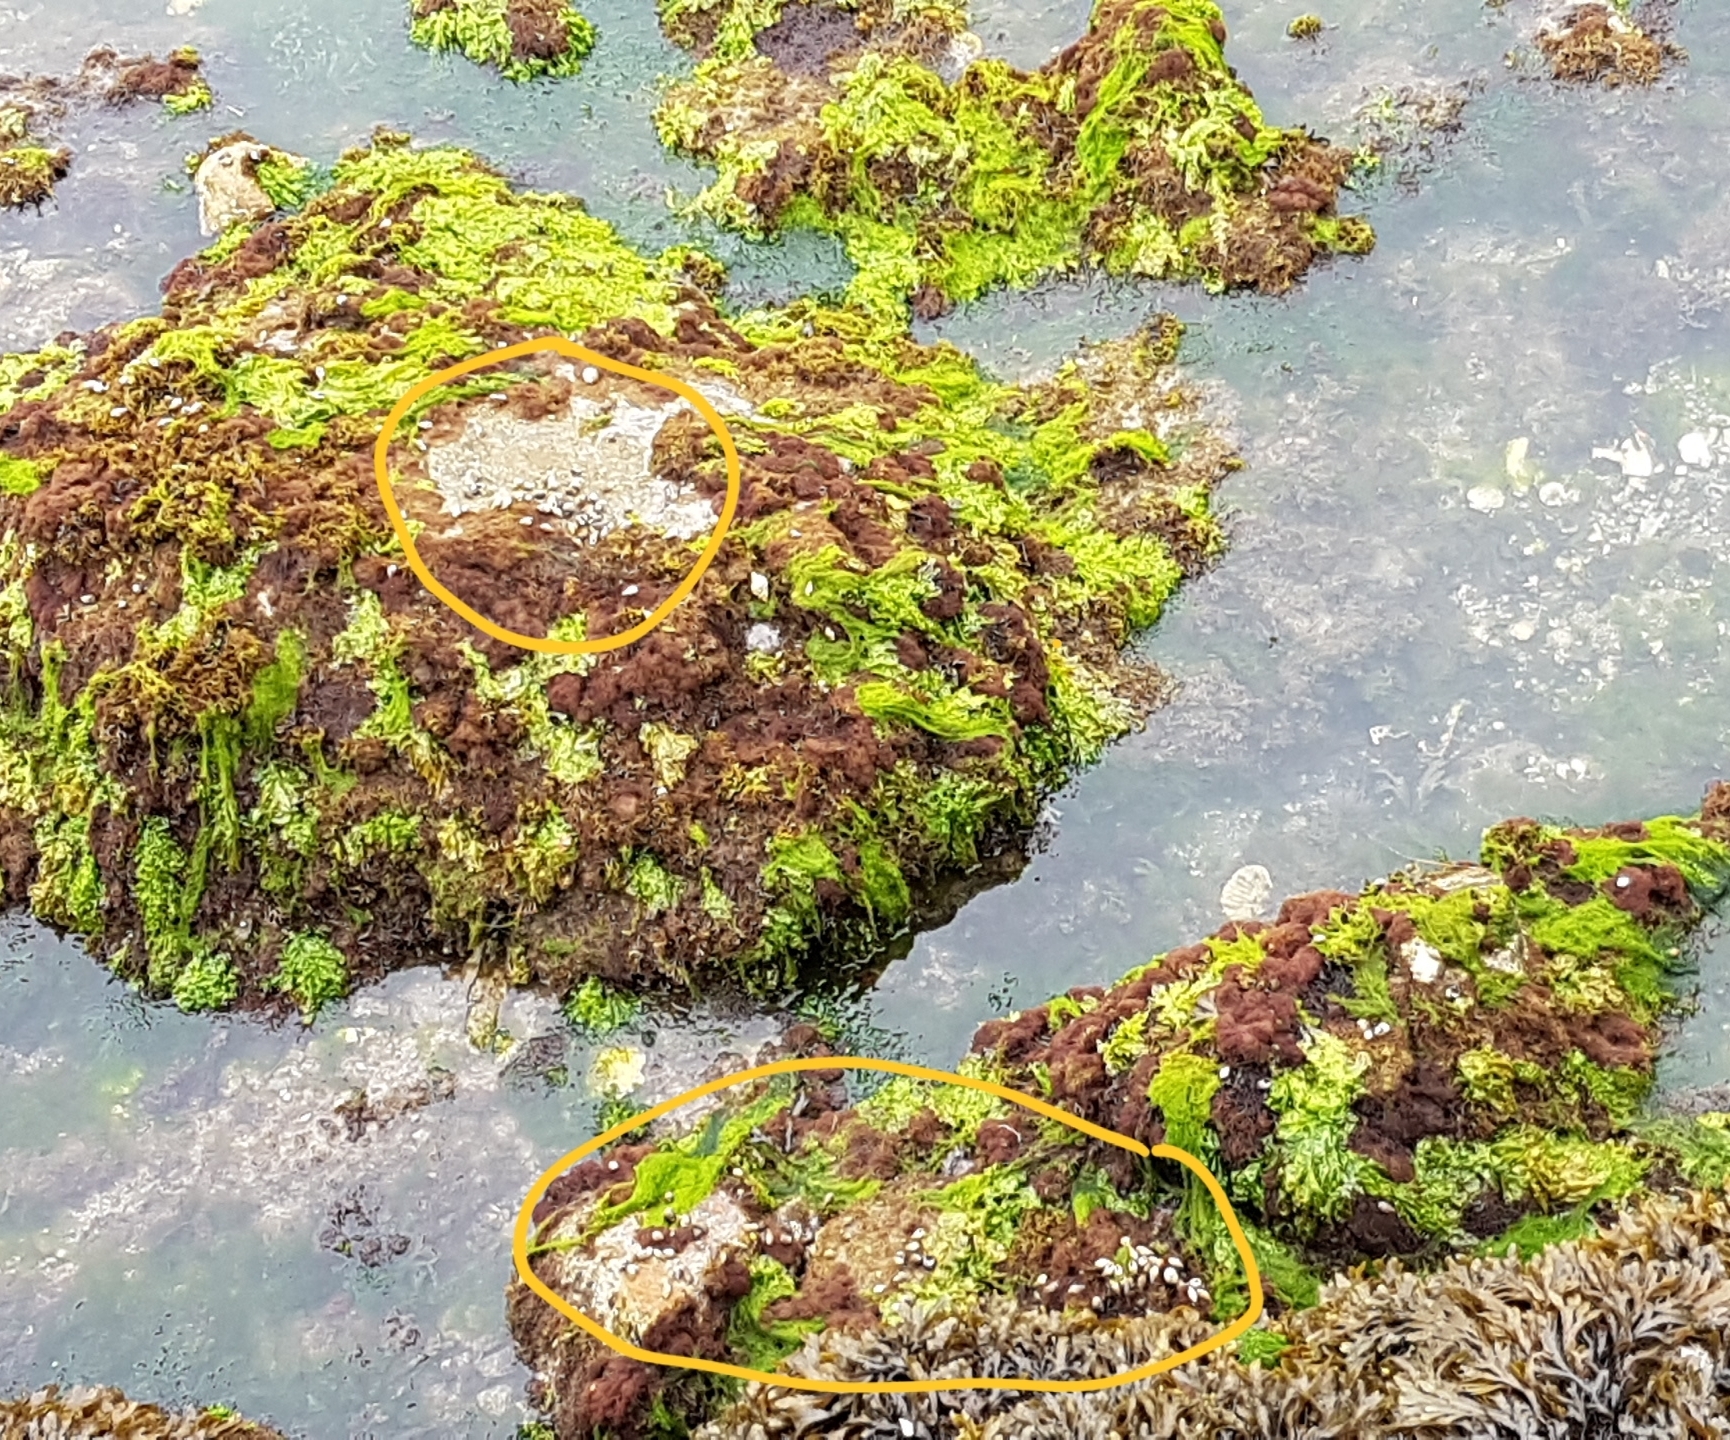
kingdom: Animalia
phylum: Arthropoda
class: Malacostraca
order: Decapoda
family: Diogenidae
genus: Clibanarius
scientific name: Clibanarius erythropus
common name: Hermit crab
